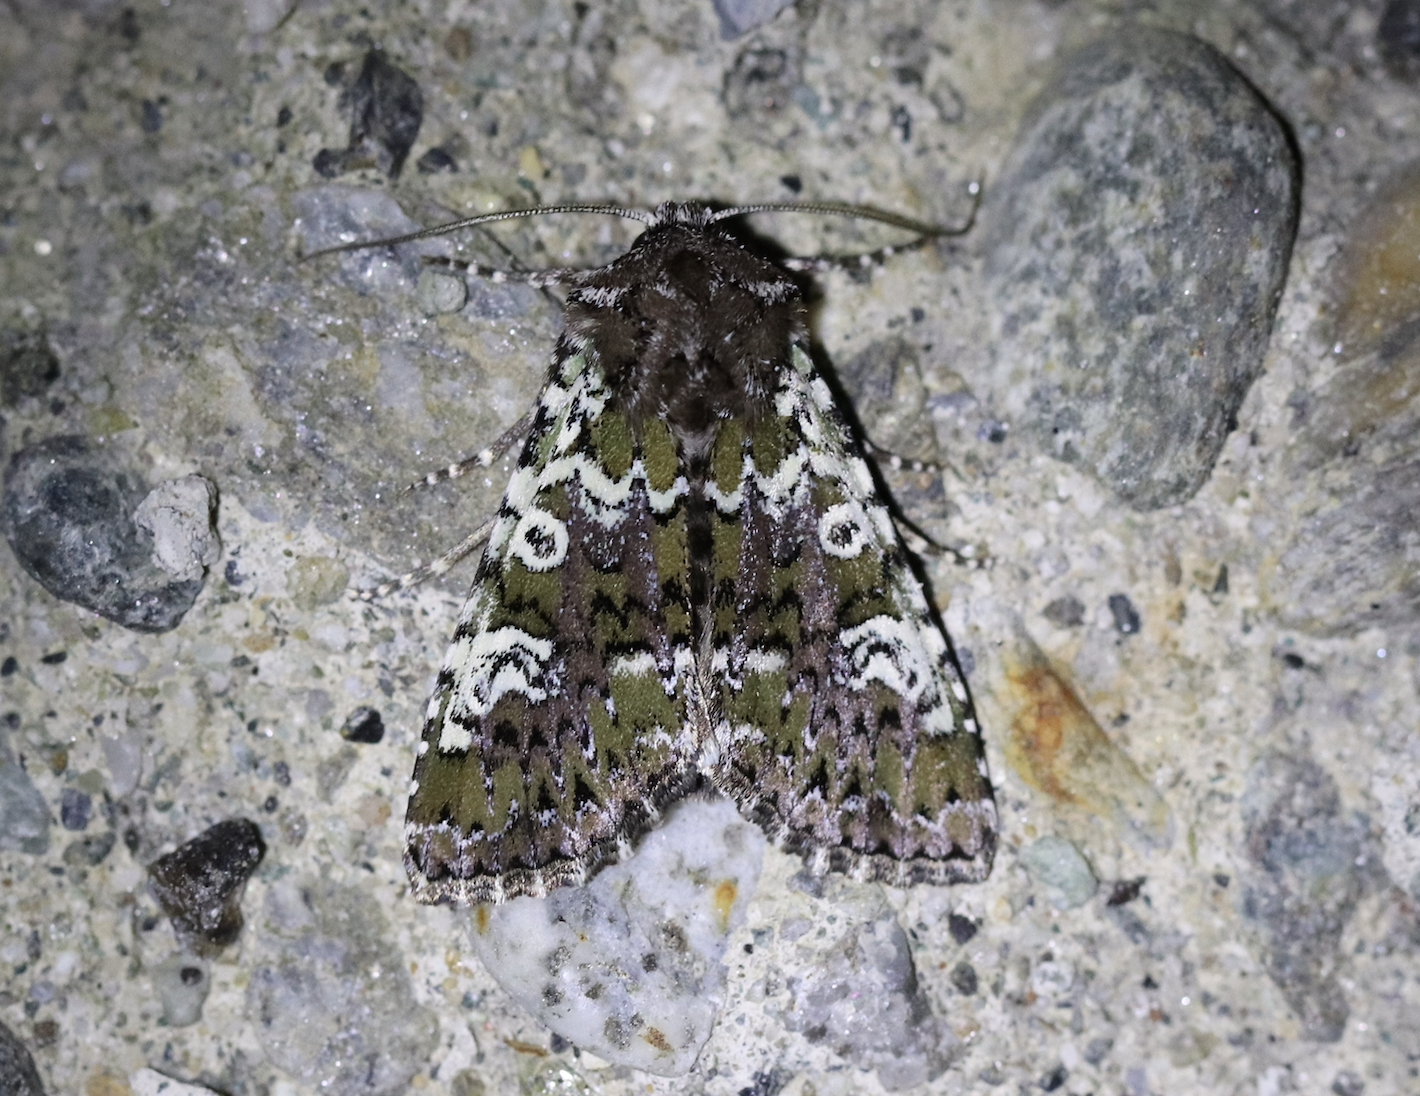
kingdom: Animalia
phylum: Arthropoda
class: Insecta
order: Lepidoptera
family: Noctuidae
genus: Crypsedra
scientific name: Crypsedra gemmea
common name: Cameo
